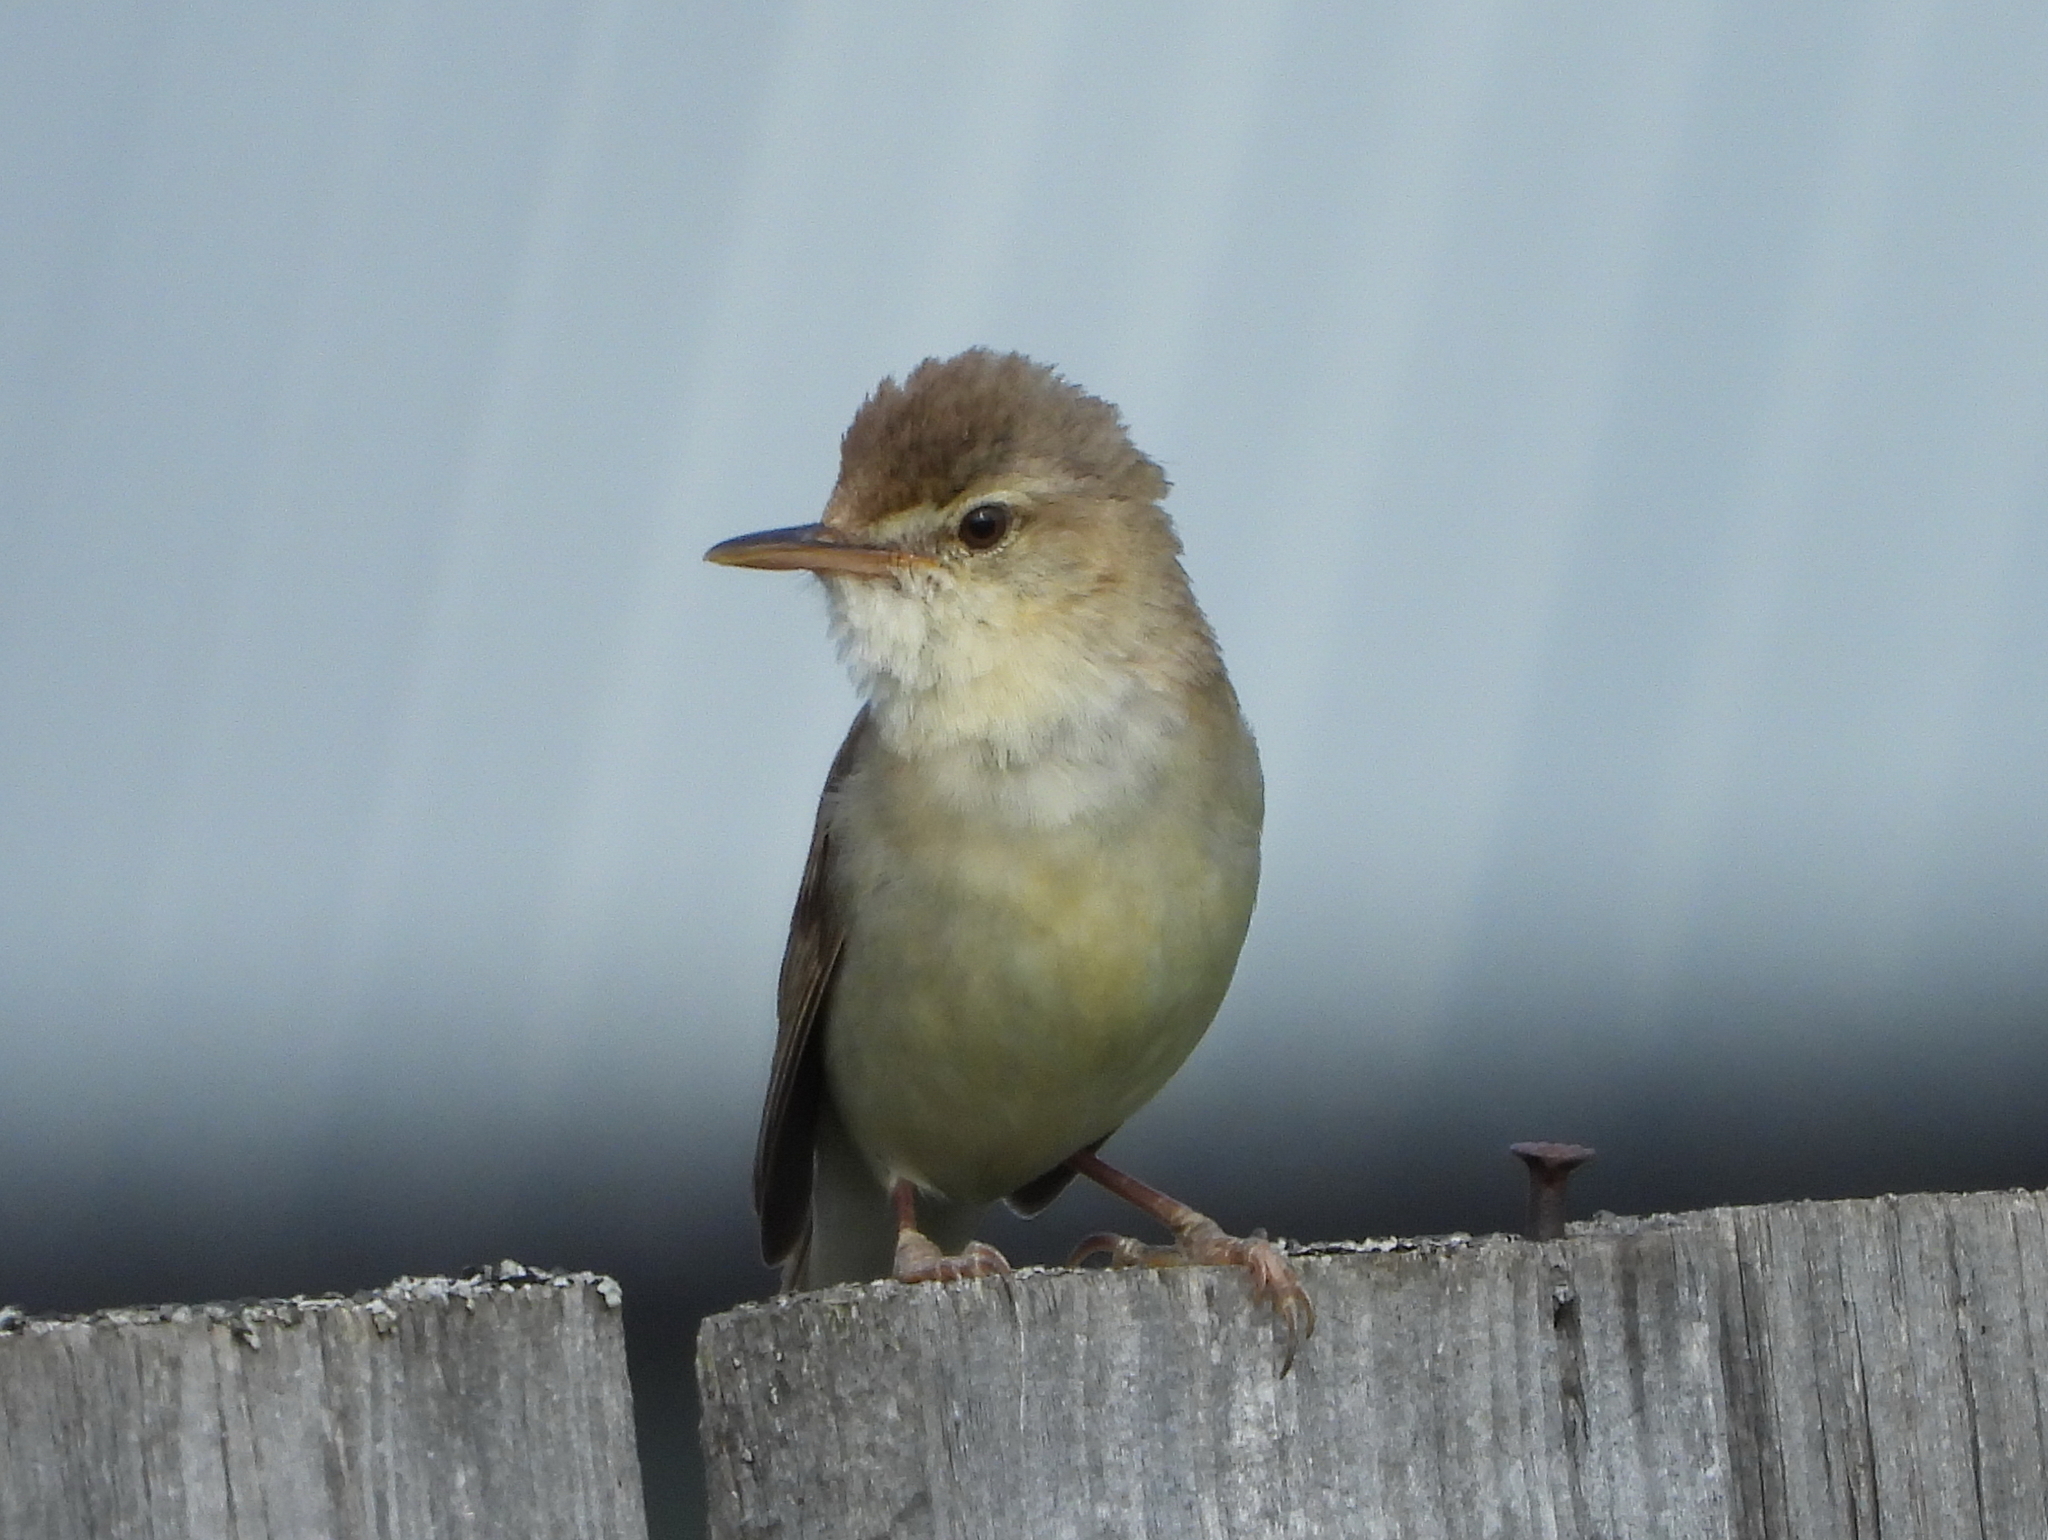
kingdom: Animalia
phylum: Chordata
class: Aves
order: Passeriformes
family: Acrocephalidae
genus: Acrocephalus
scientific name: Acrocephalus dumetorum
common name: Blyth's reed warbler
